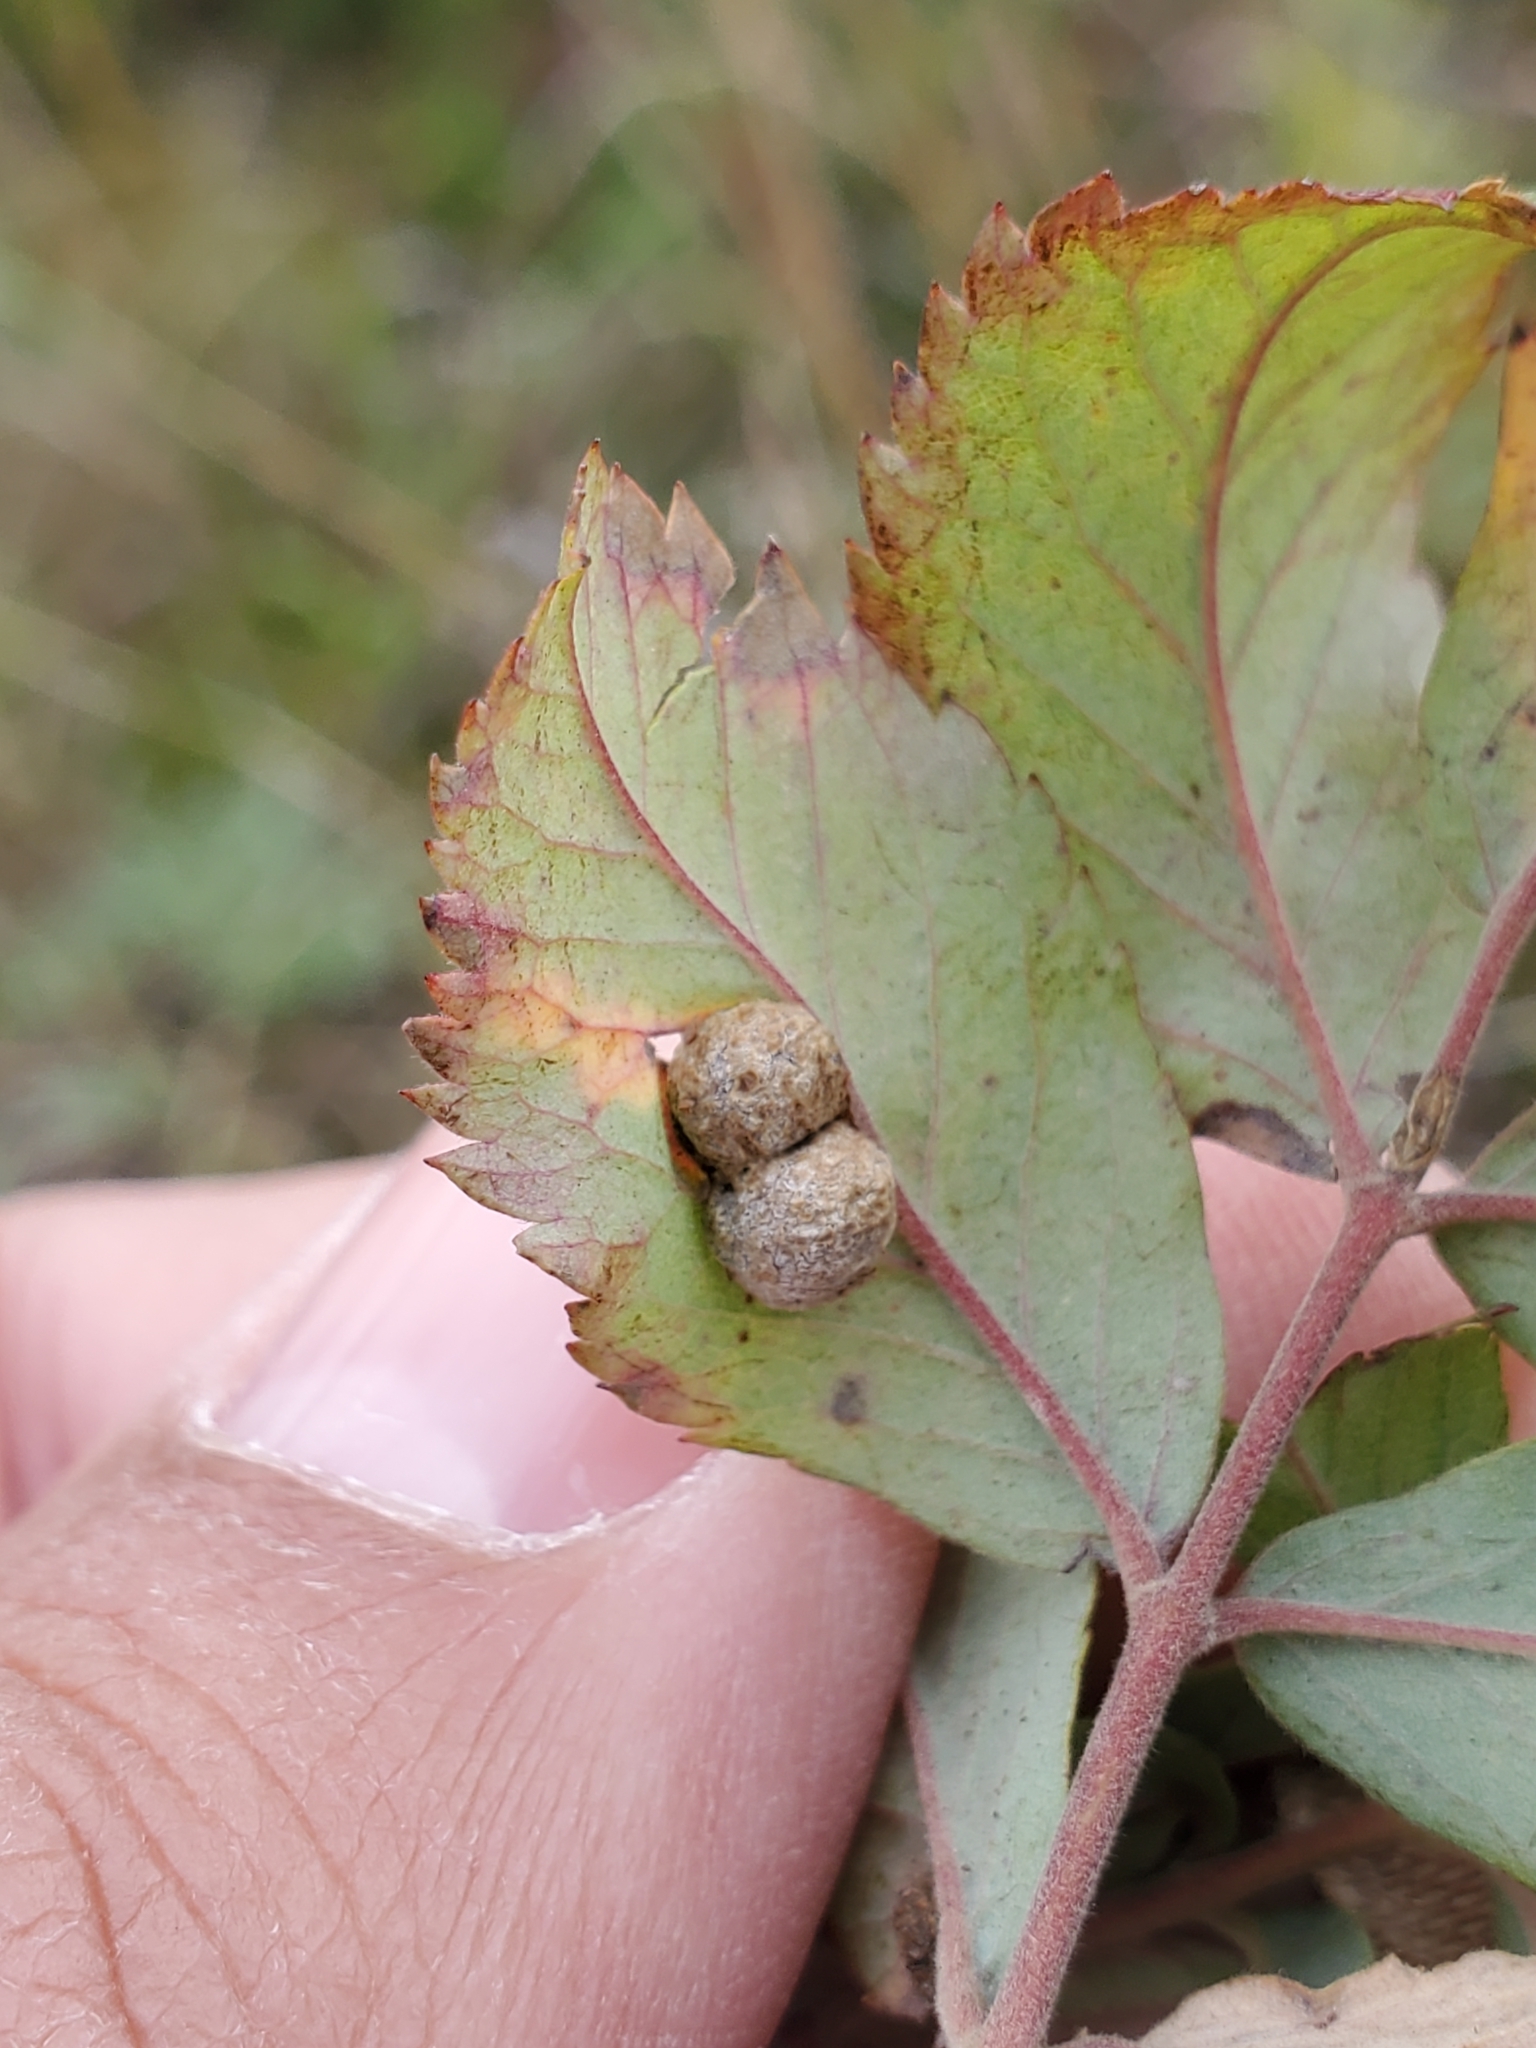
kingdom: Animalia
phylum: Arthropoda
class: Insecta
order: Hymenoptera
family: Cynipidae
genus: Diplolepis
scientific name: Diplolepis ignota
